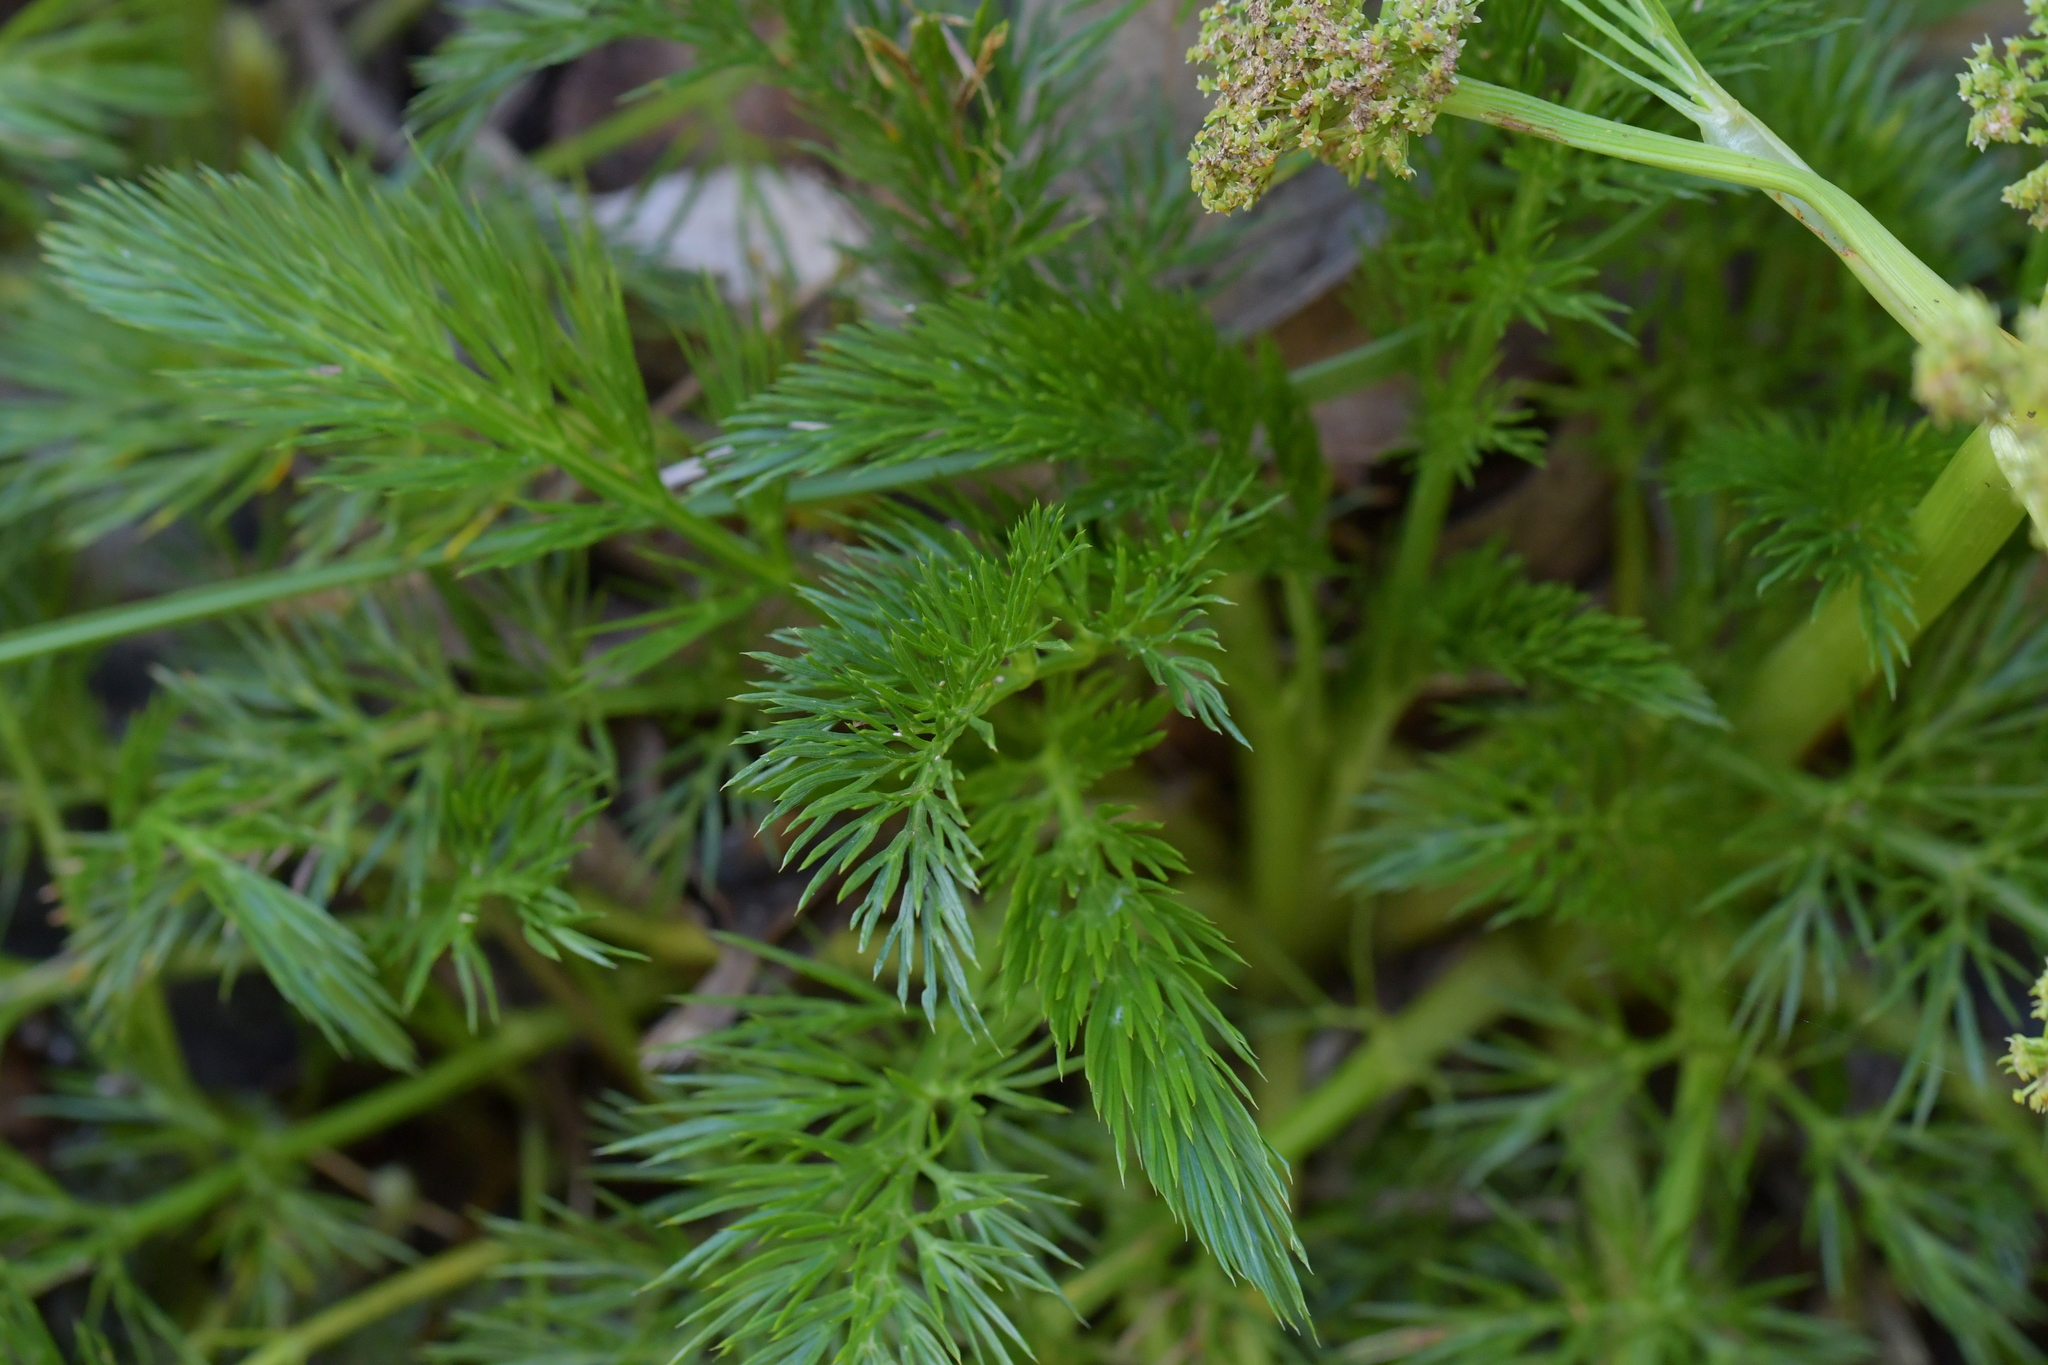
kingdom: Plantae
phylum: Tracheophyta
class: Magnoliopsida
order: Apiales
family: Apiaceae
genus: Aciphylla
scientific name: Aciphylla dissecta
